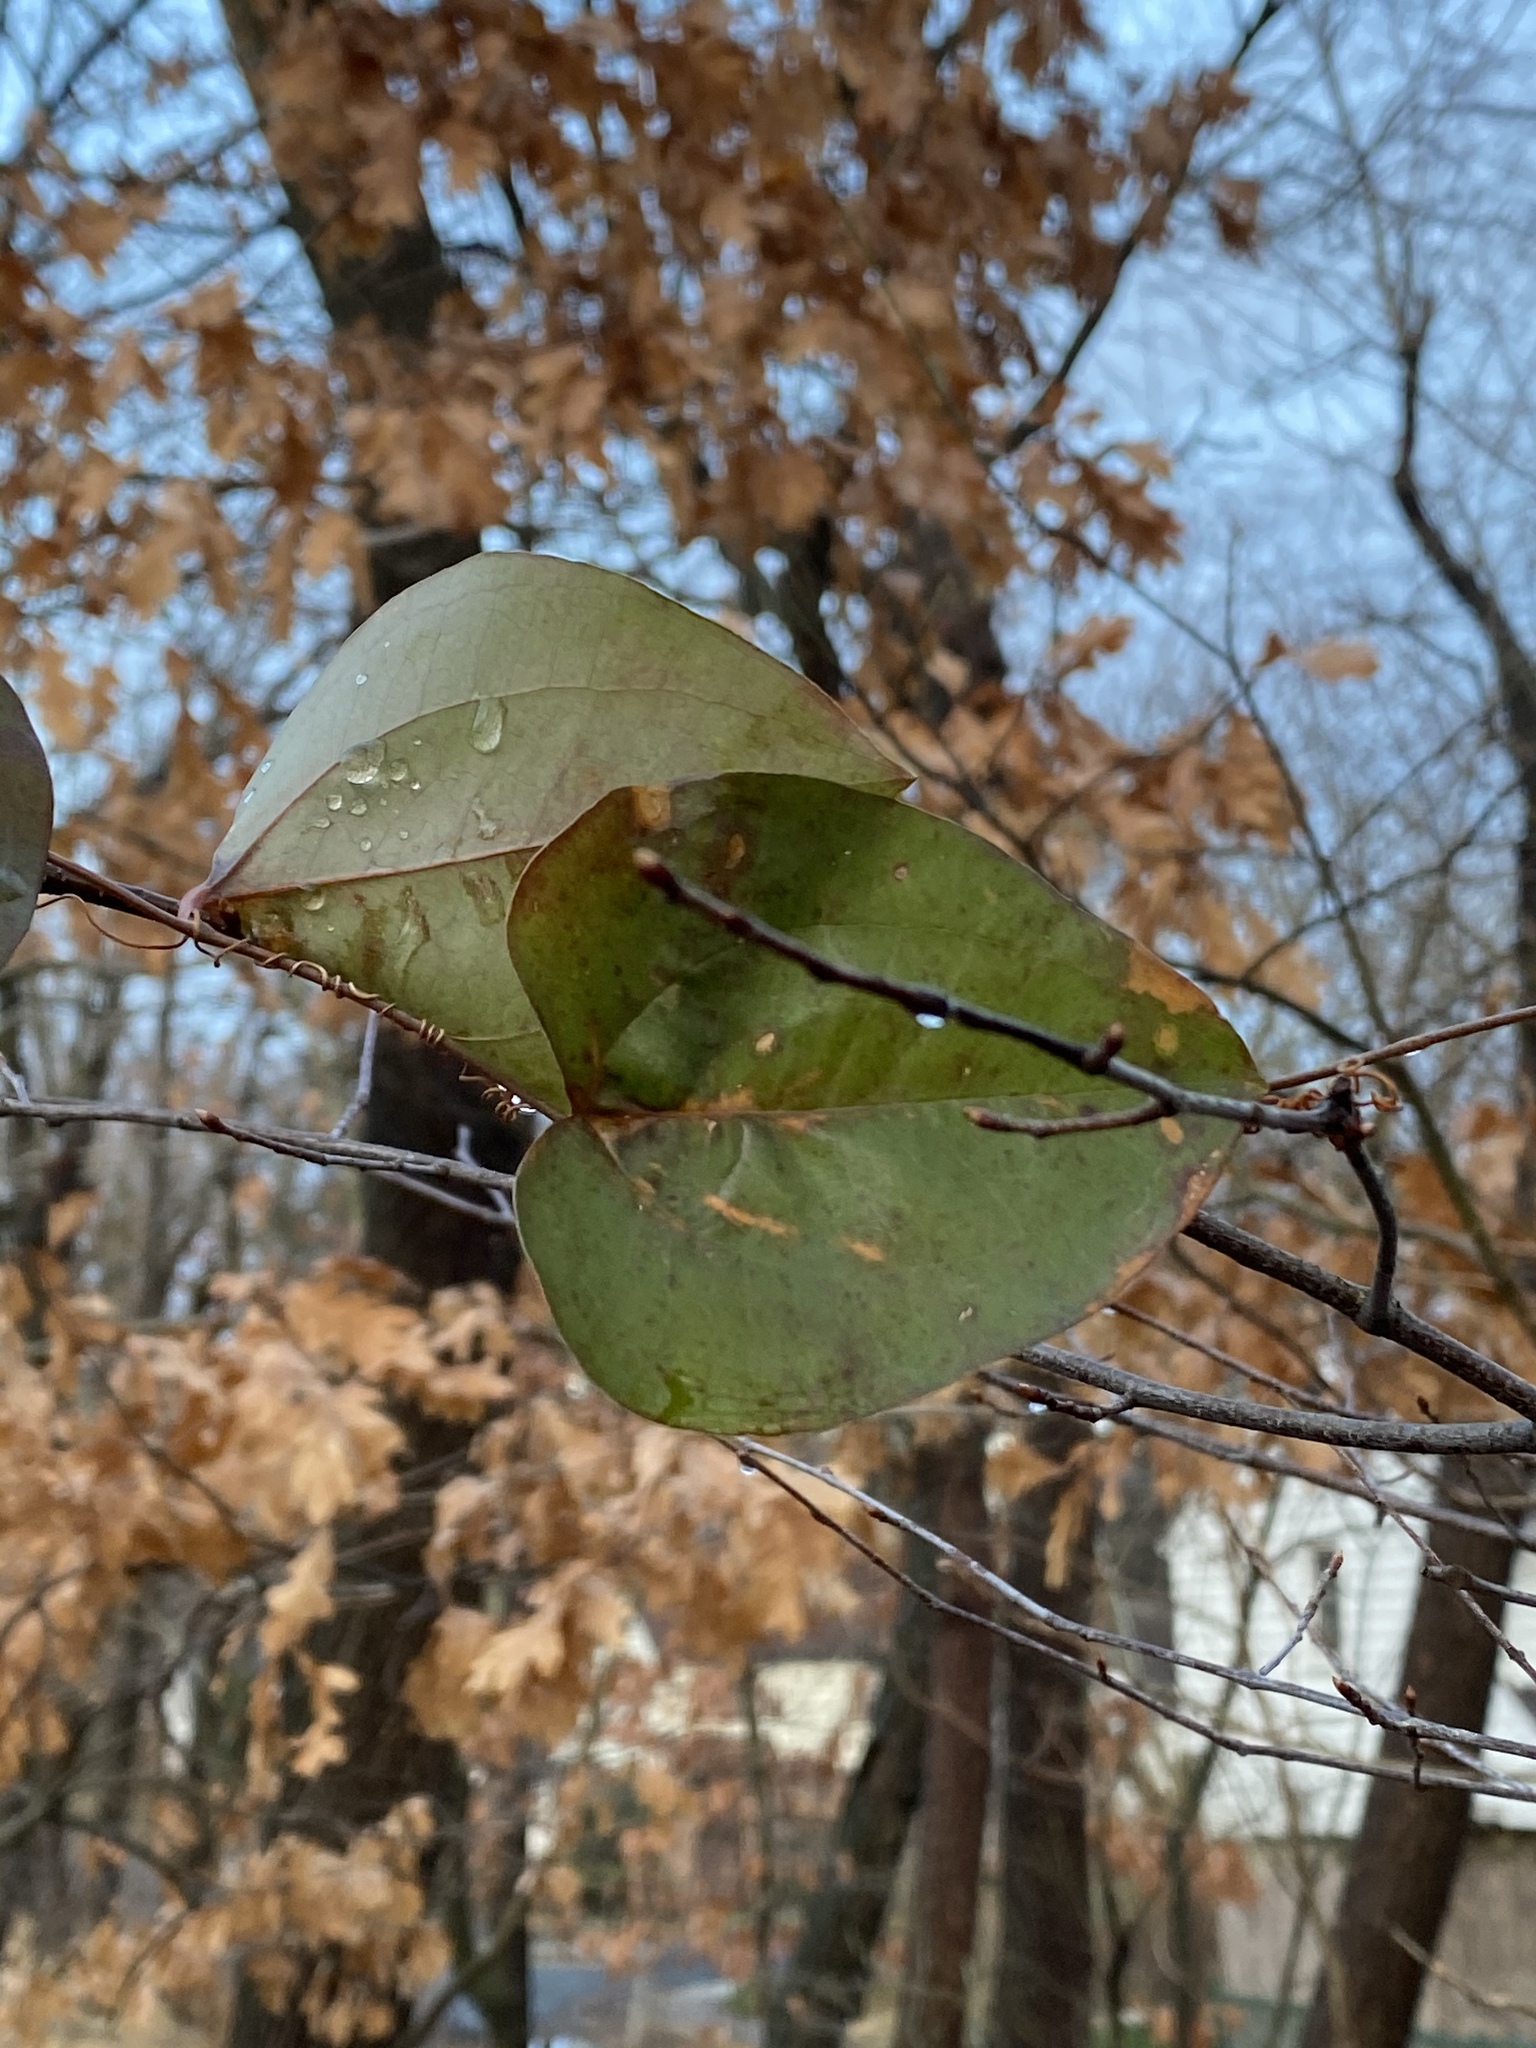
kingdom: Plantae
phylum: Tracheophyta
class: Liliopsida
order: Liliales
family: Smilacaceae
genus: Smilax
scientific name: Smilax glauca
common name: Cat greenbrier
